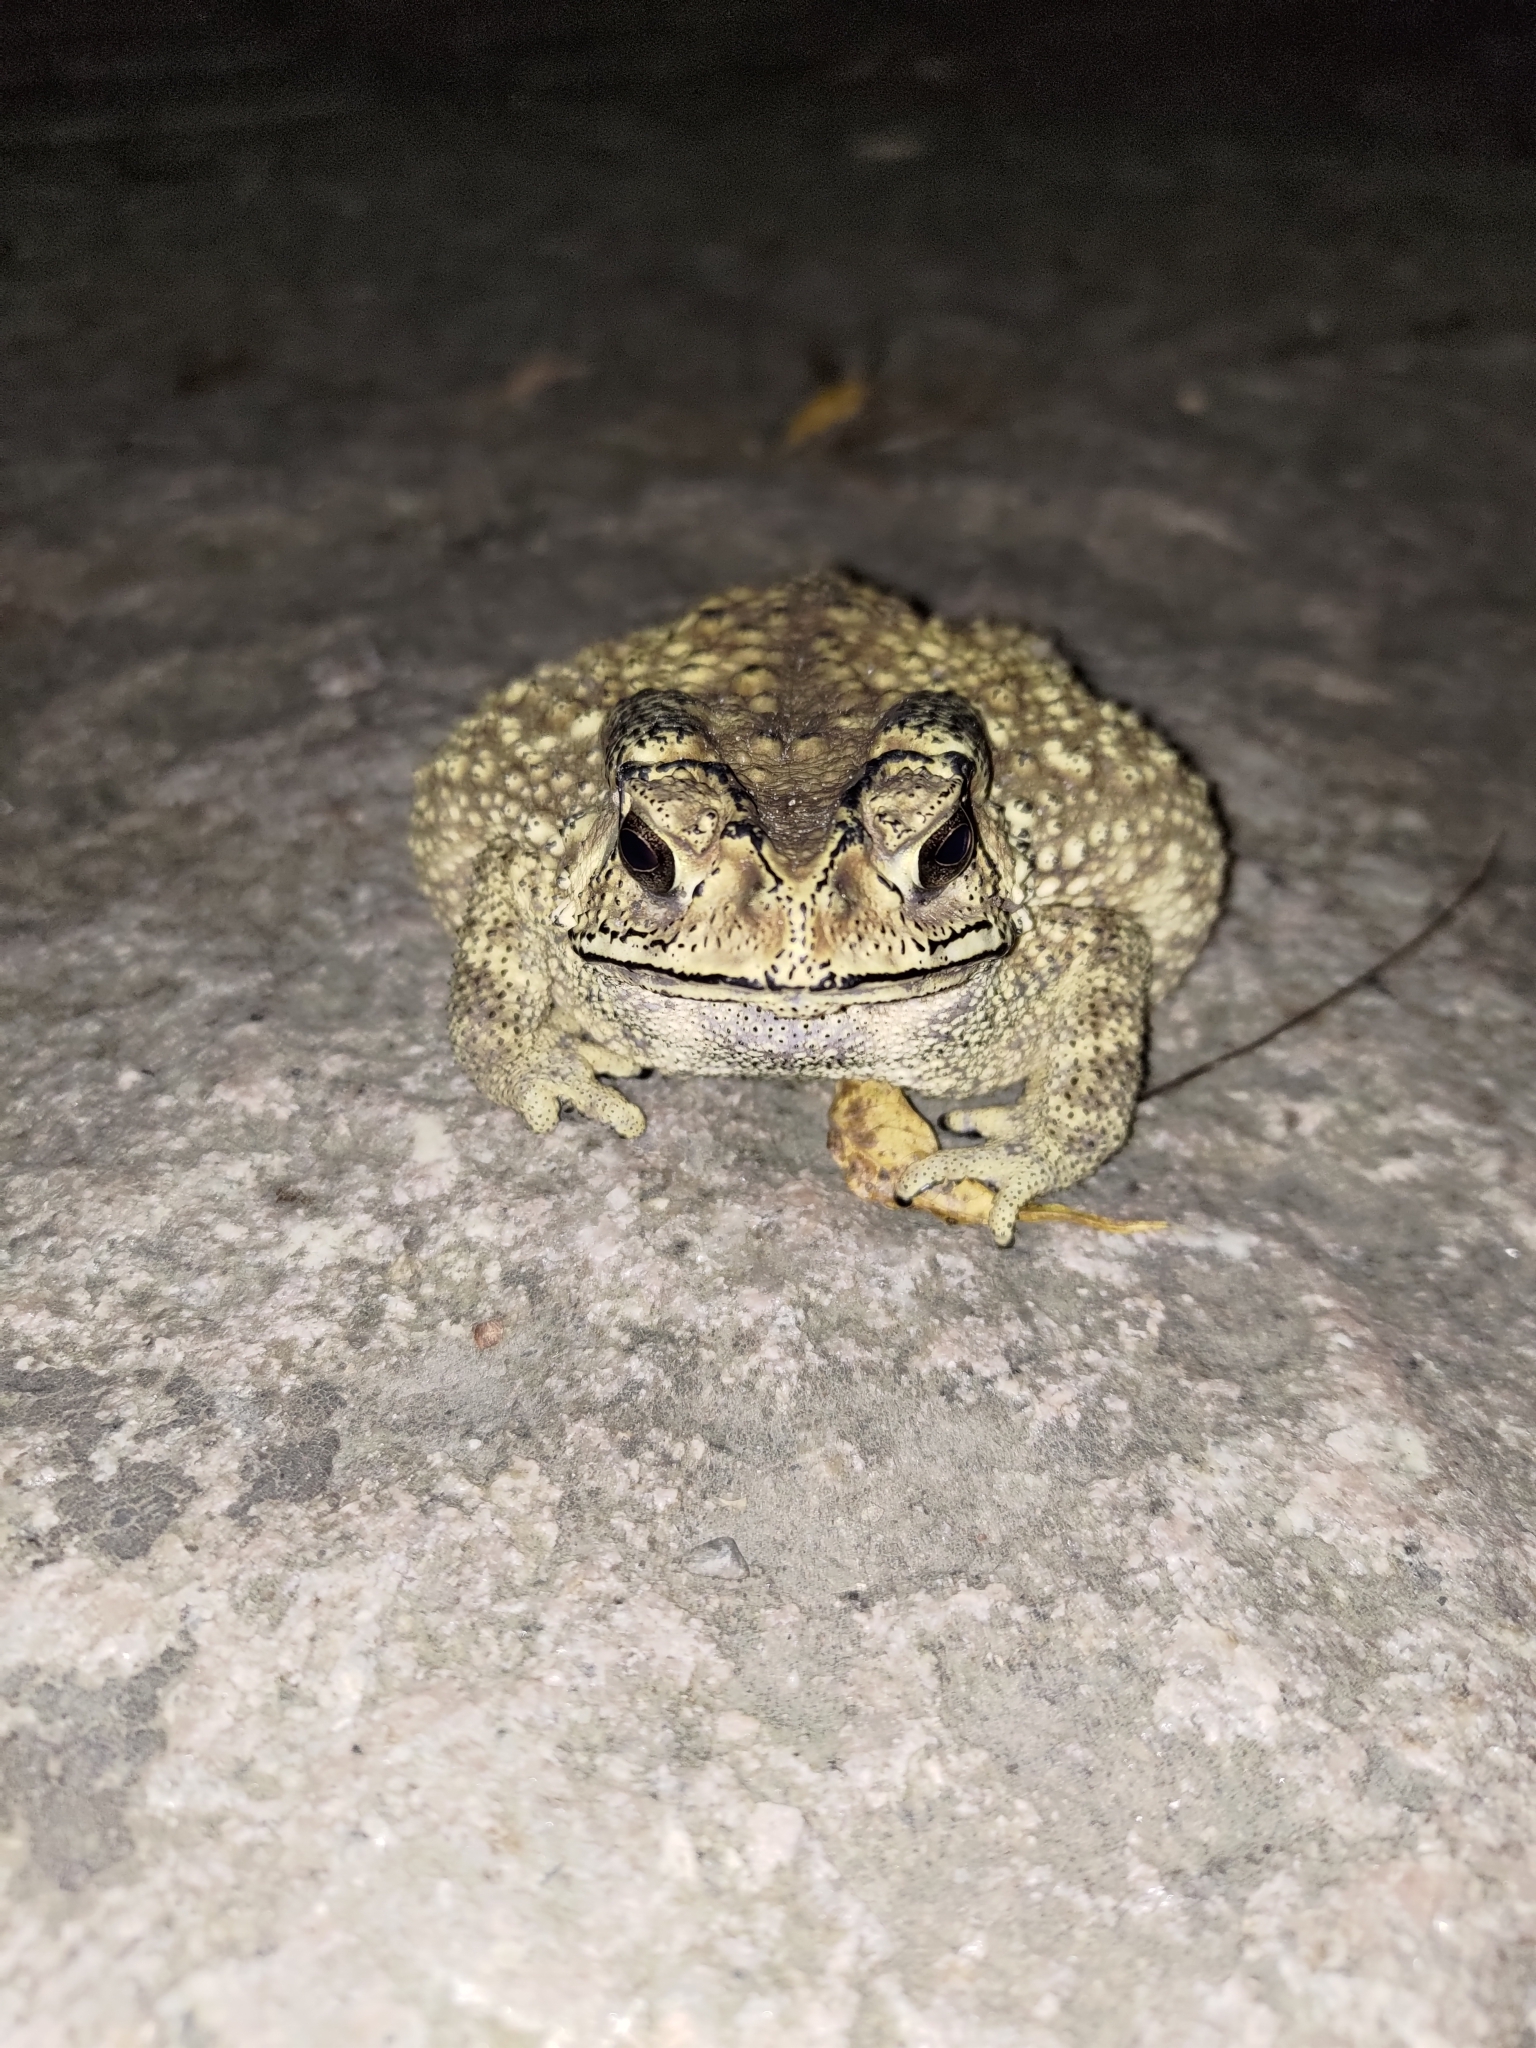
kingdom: Animalia
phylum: Chordata
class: Amphibia
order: Anura
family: Bufonidae
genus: Duttaphrynus
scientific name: Duttaphrynus melanostictus
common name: Common sunda toad
